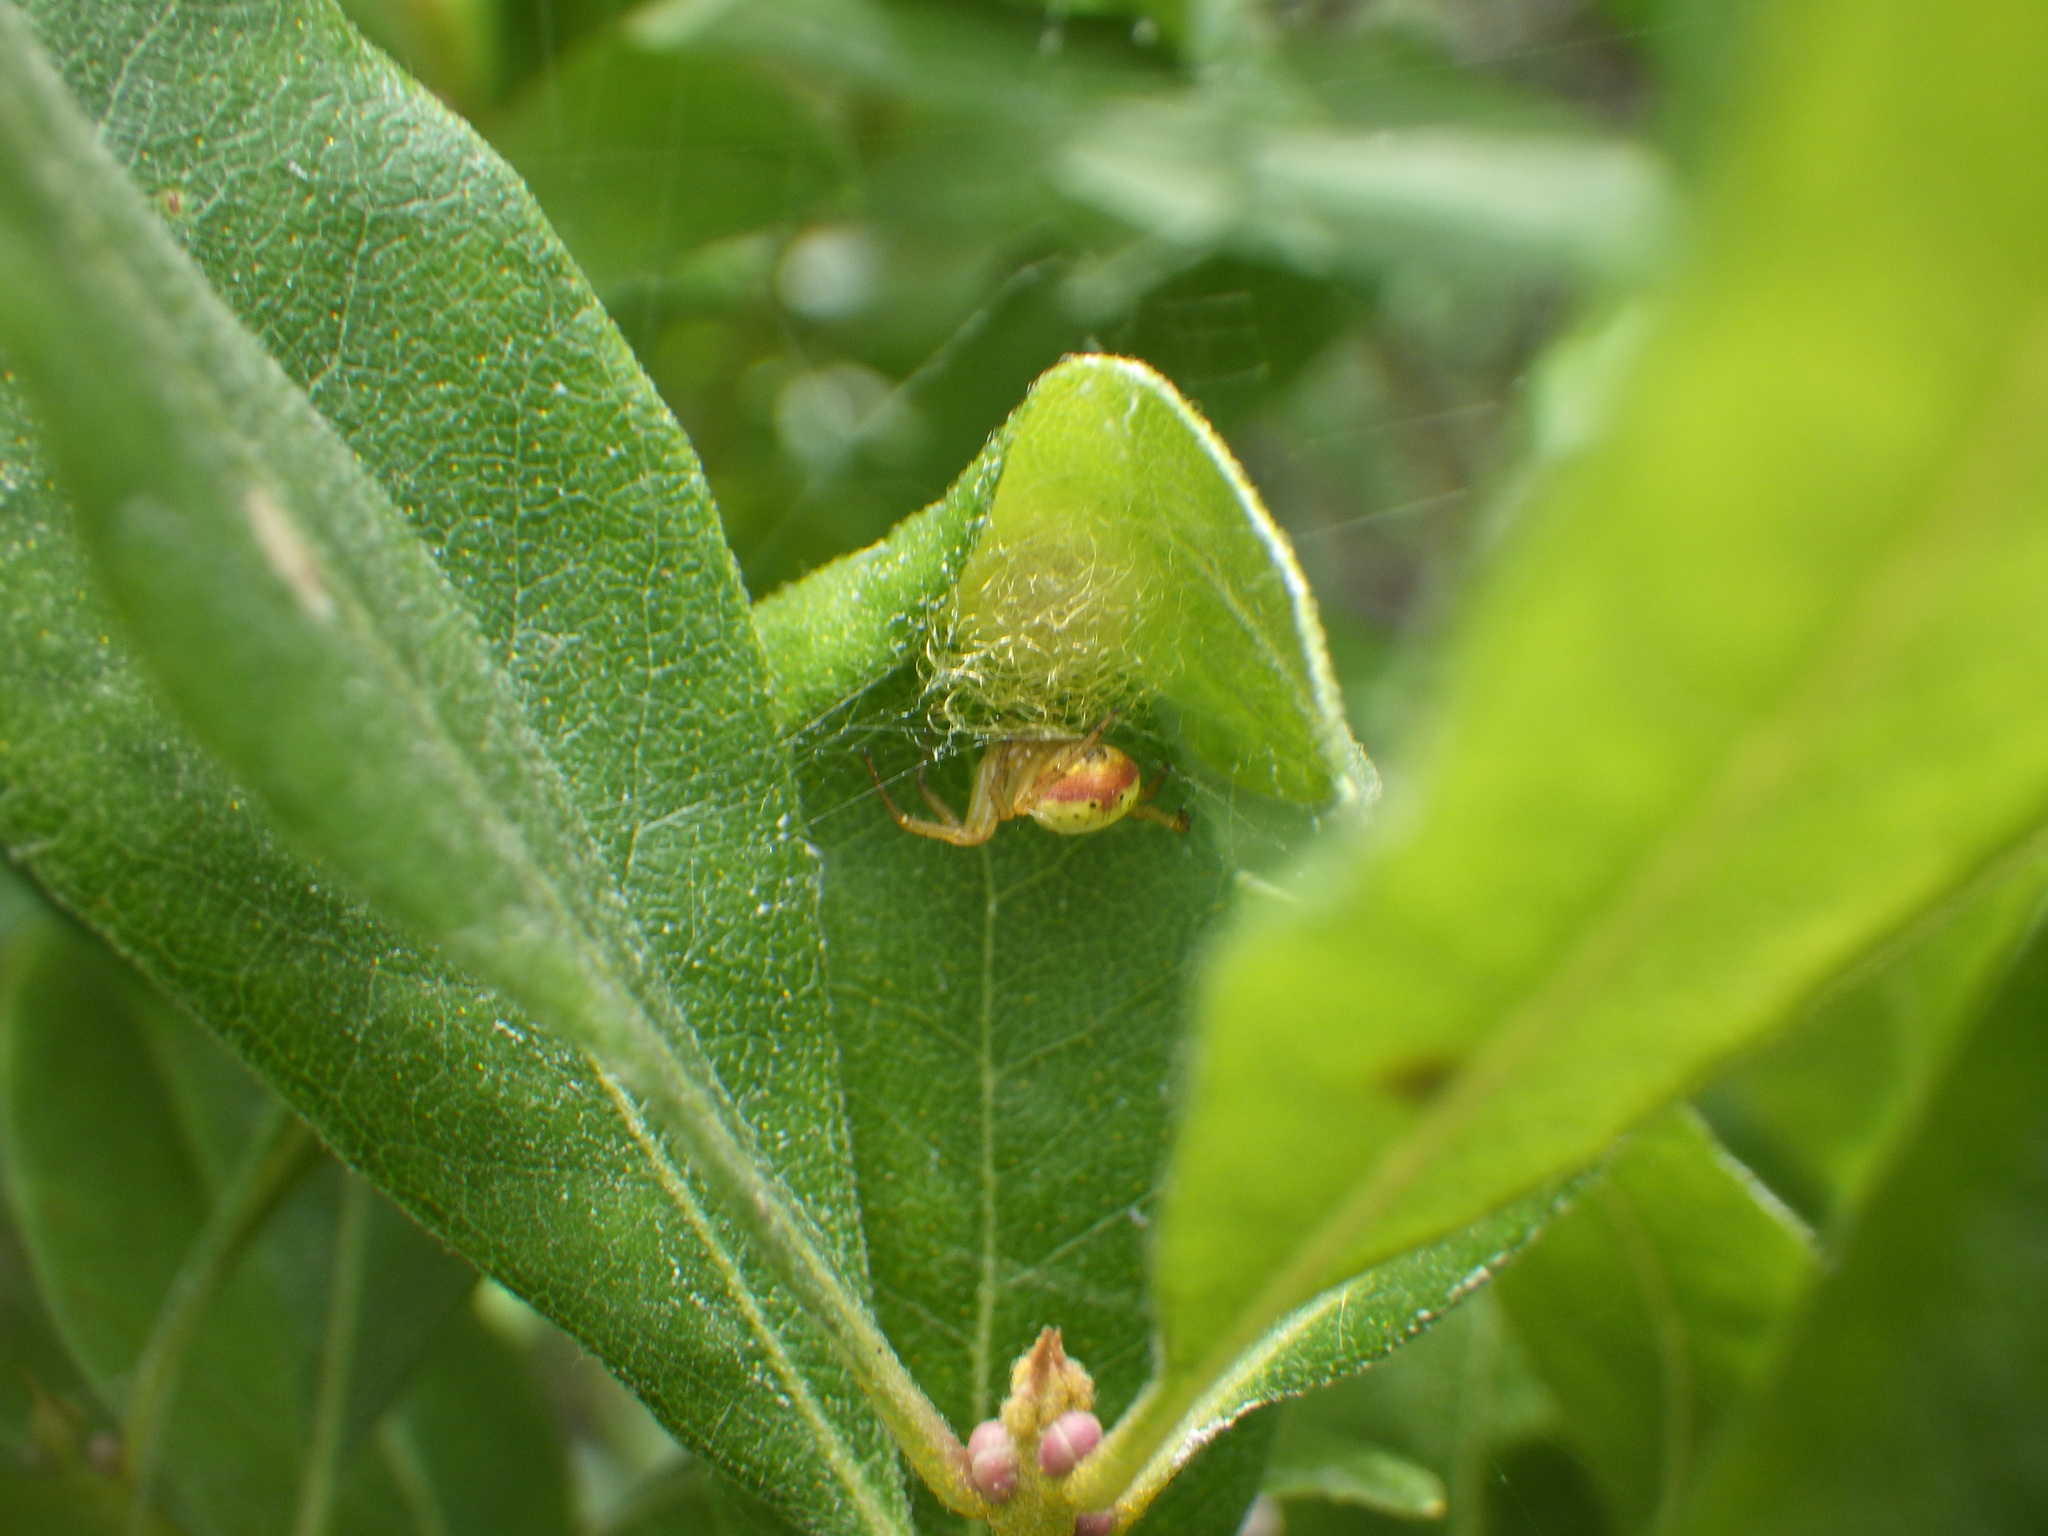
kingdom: Animalia
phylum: Arthropoda
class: Arachnida
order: Araneae
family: Araneidae
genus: Araniella
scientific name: Araniella displicata
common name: Sixspotted orb weaver
